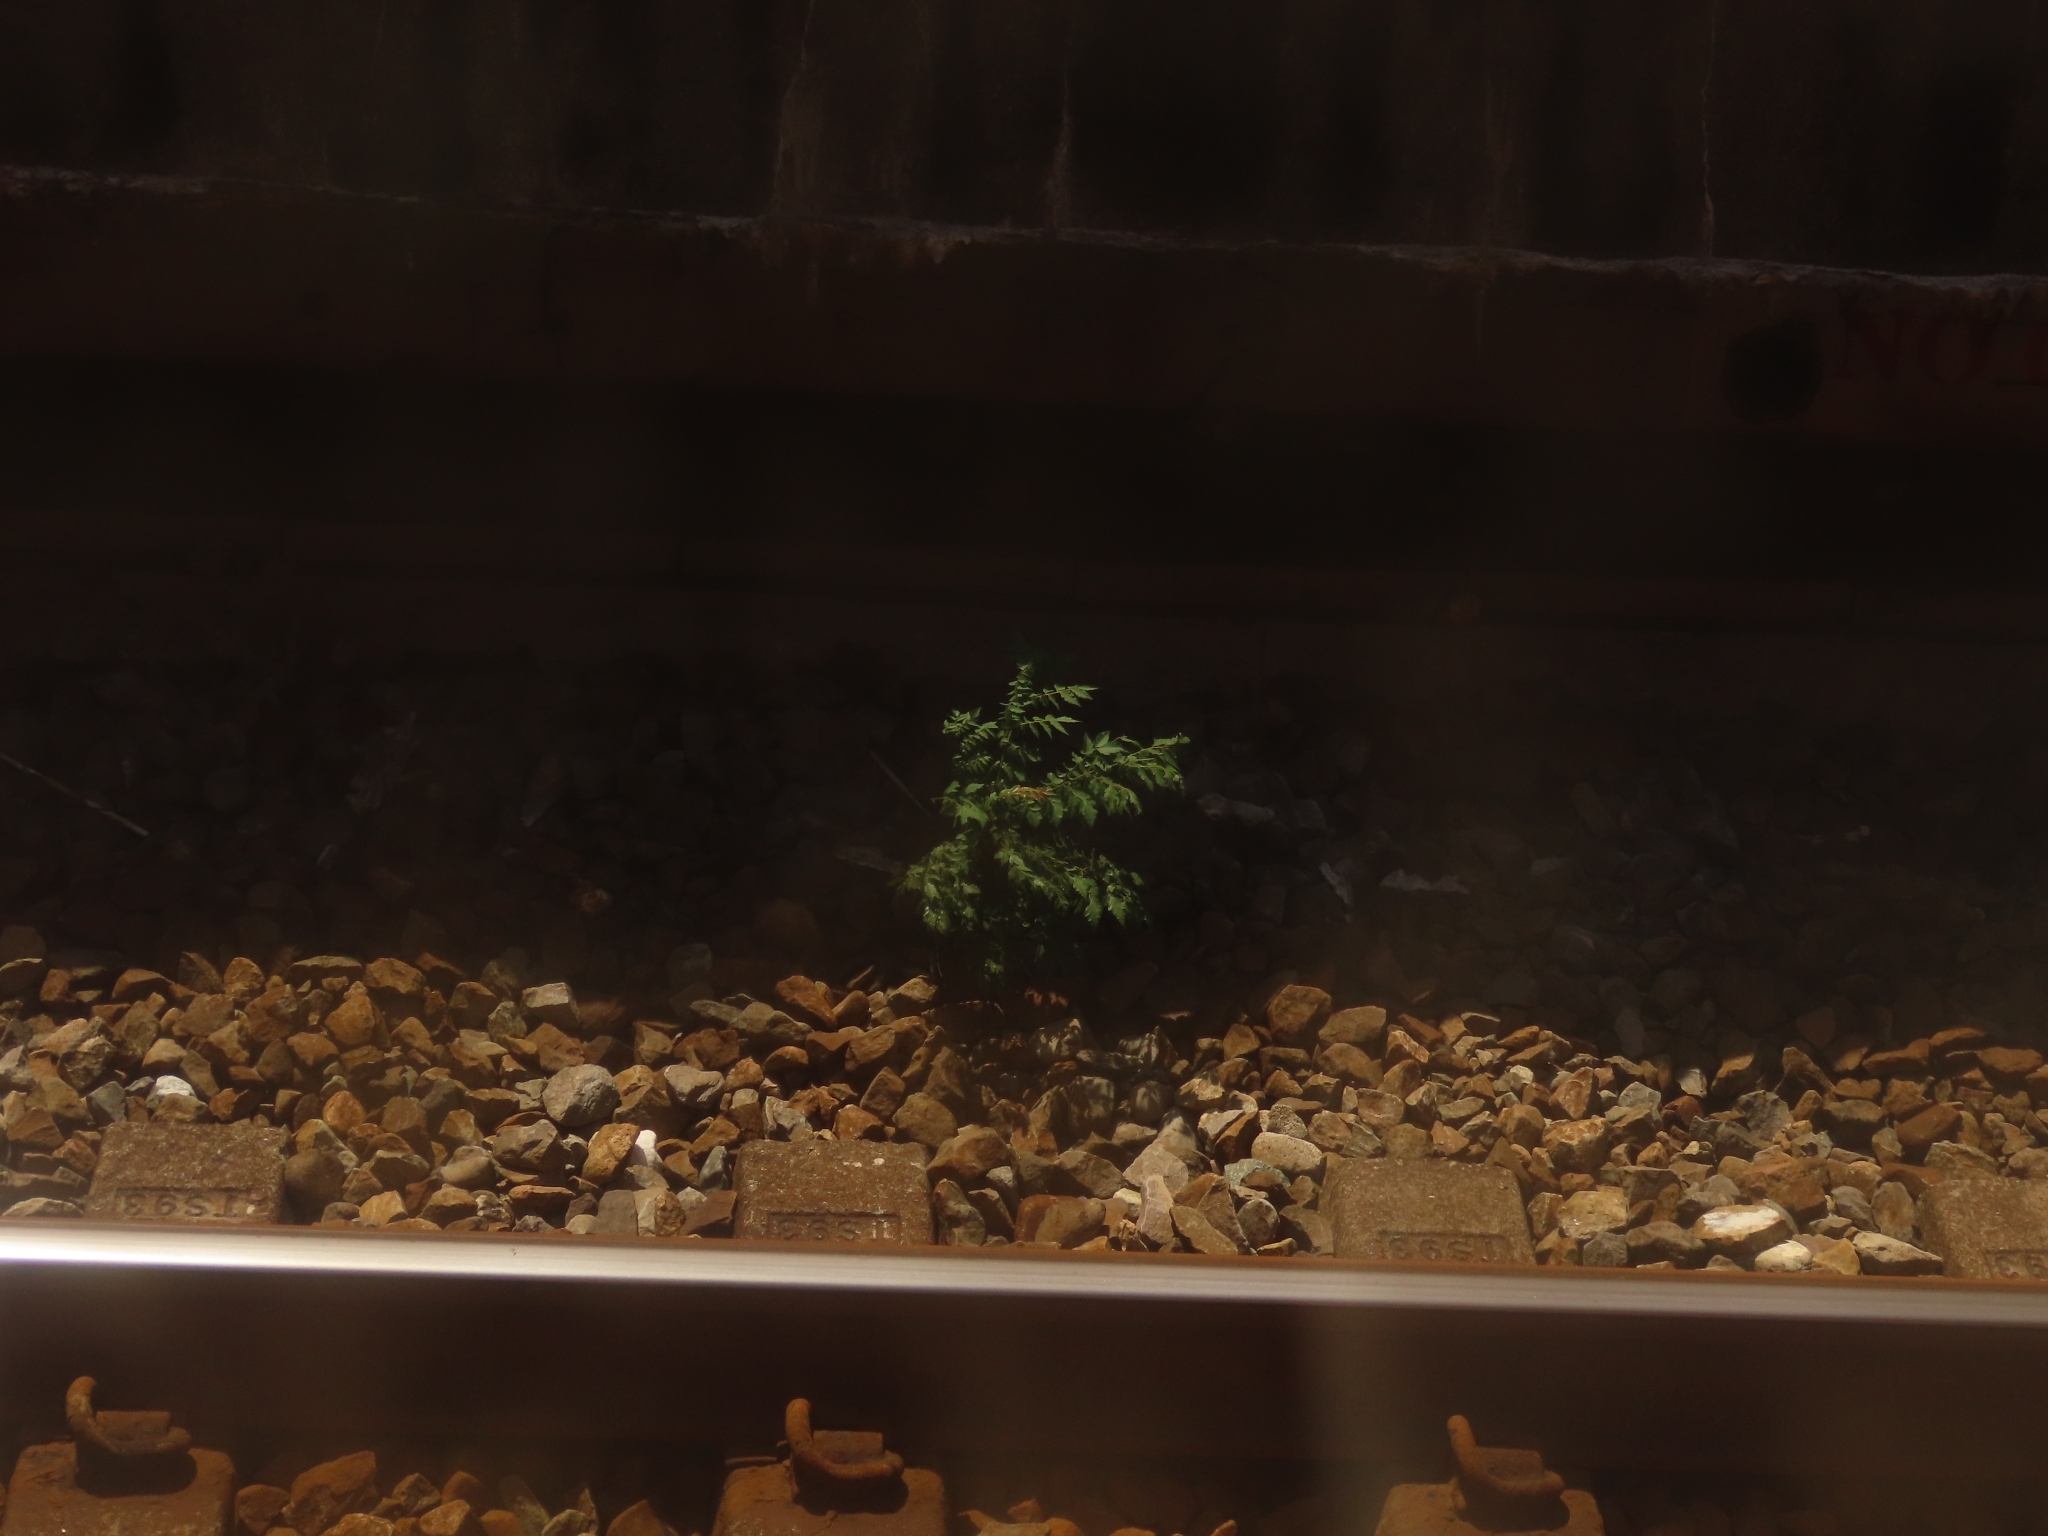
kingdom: Plantae
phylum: Tracheophyta
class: Magnoliopsida
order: Sapindales
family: Sapindaceae
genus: Koelreuteria
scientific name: Koelreuteria elegans
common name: Chinese flame tree
